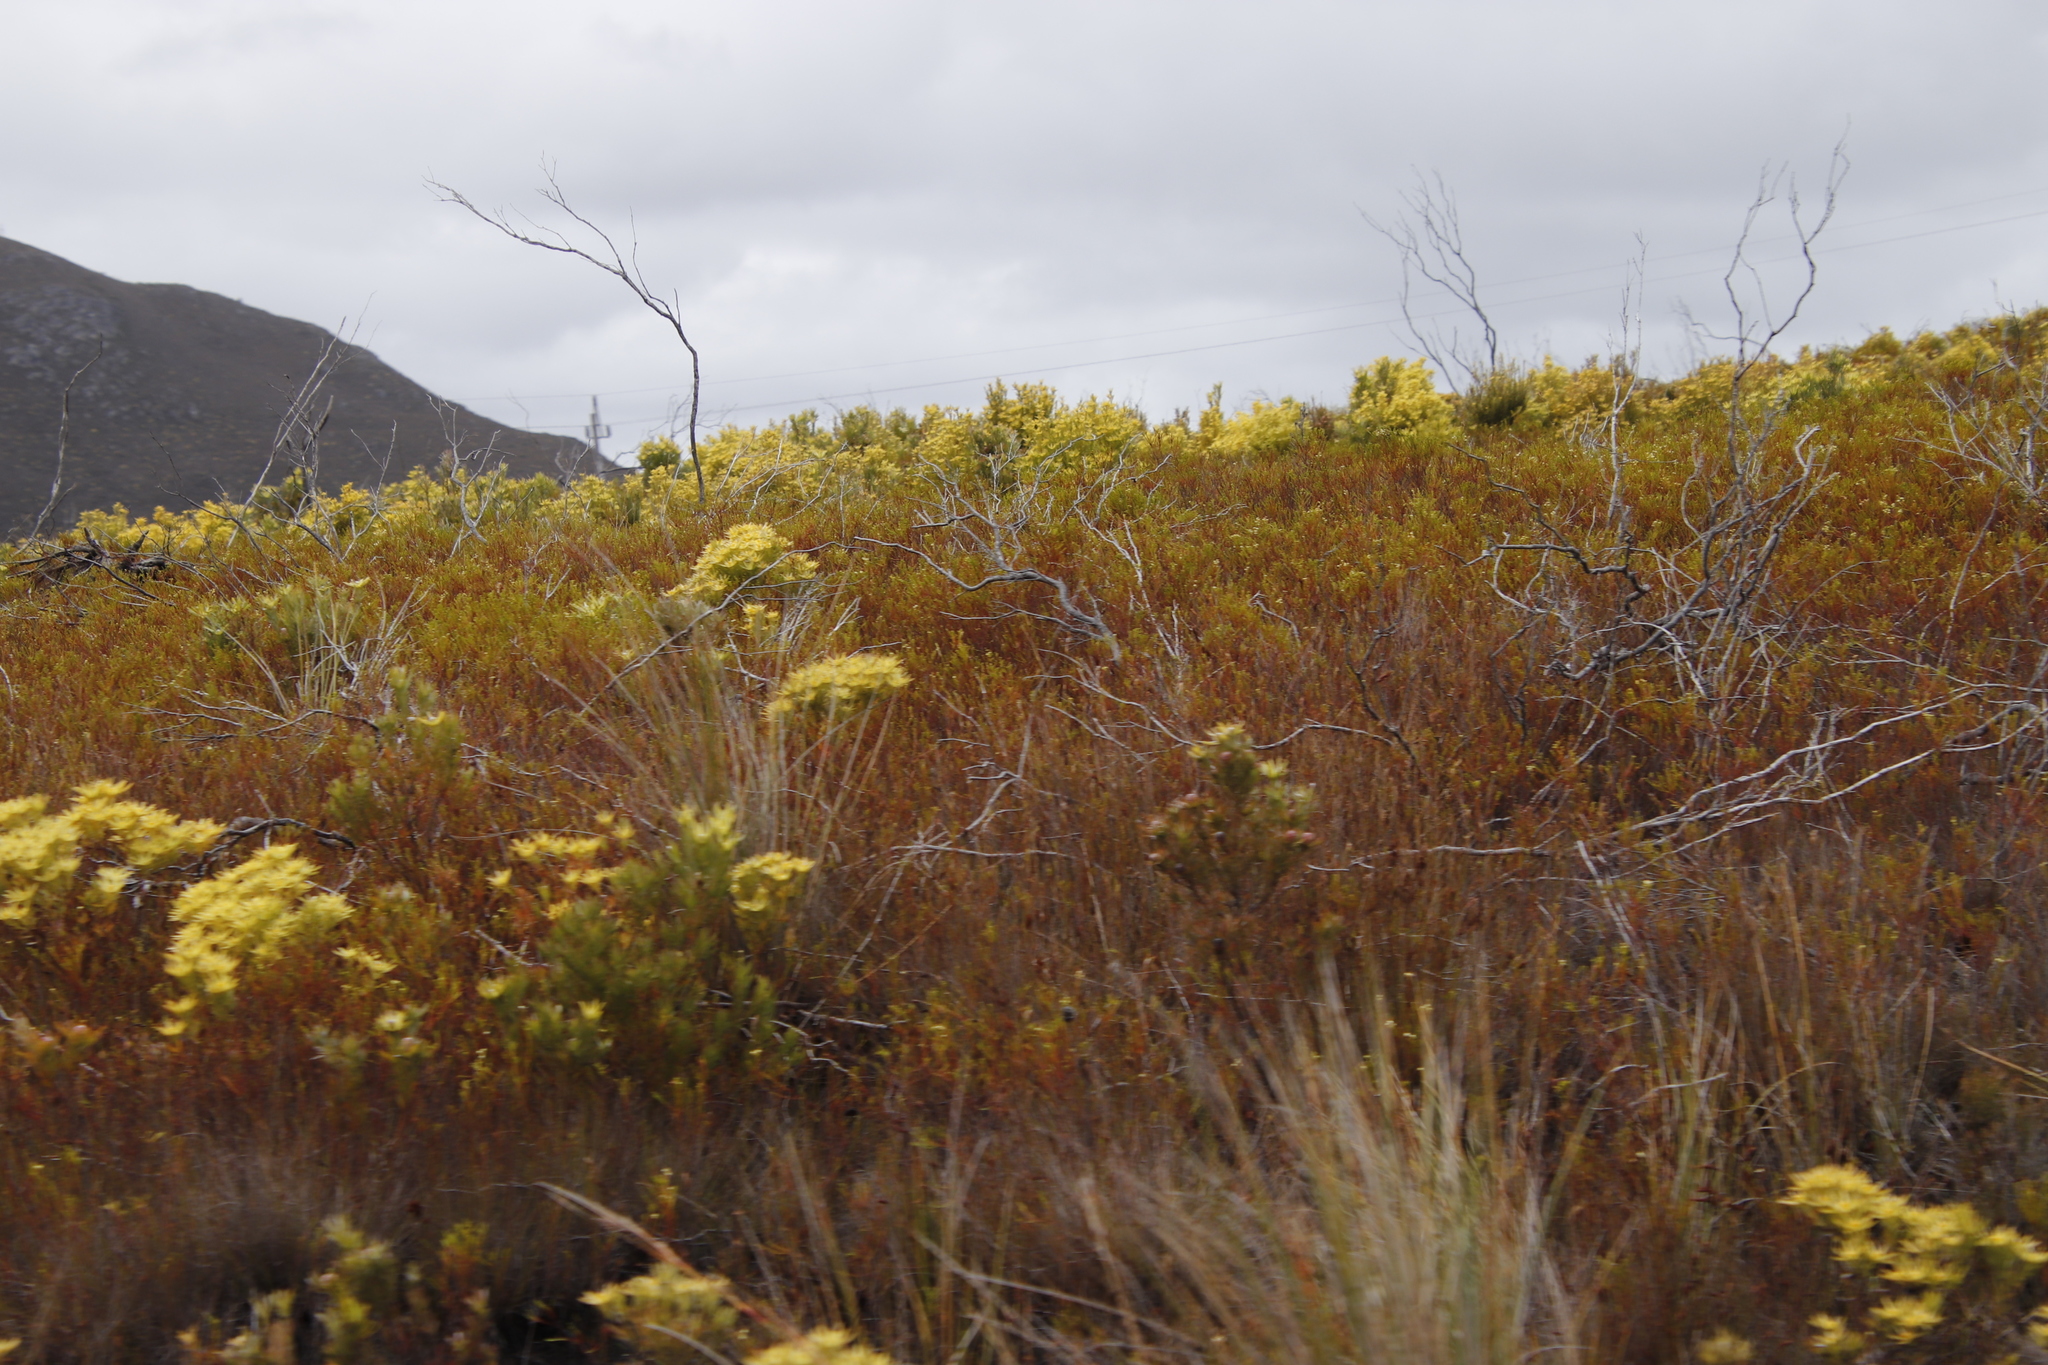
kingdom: Plantae
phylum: Tracheophyta
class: Magnoliopsida
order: Proteales
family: Proteaceae
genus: Leucadendron
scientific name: Leucadendron xanthoconus
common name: Sickle-leaf conebush
